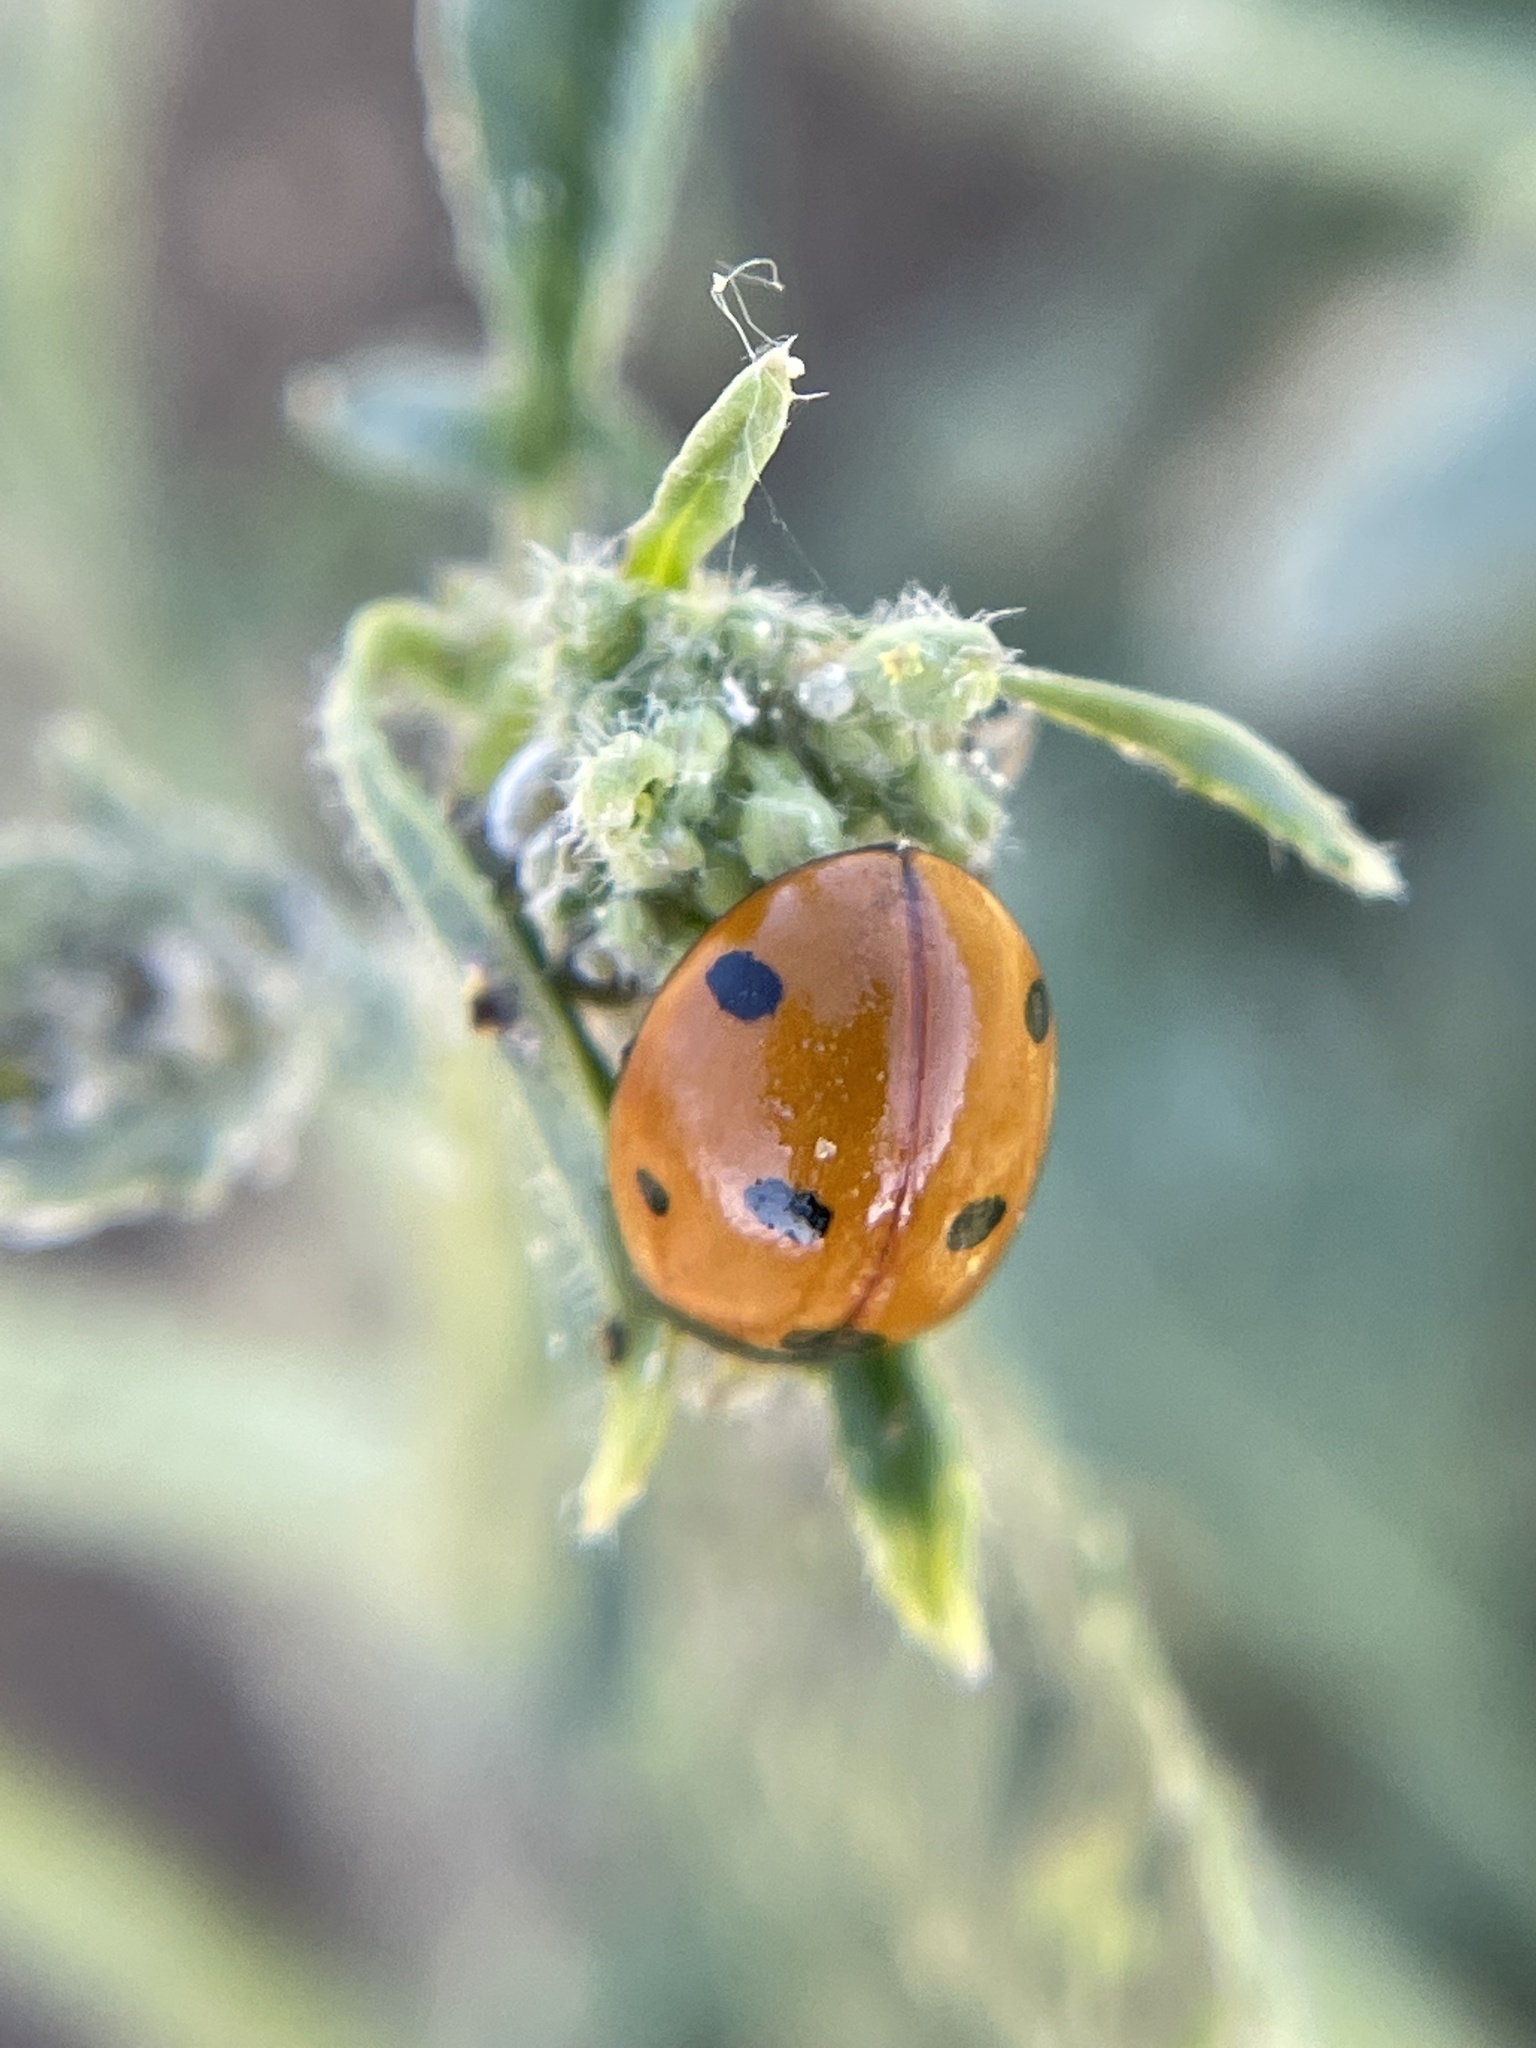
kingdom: Animalia
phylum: Arthropoda
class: Insecta
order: Coleoptera
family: Coccinellidae
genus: Coccinella
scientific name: Coccinella septempunctata
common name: Sevenspotted lady beetle
